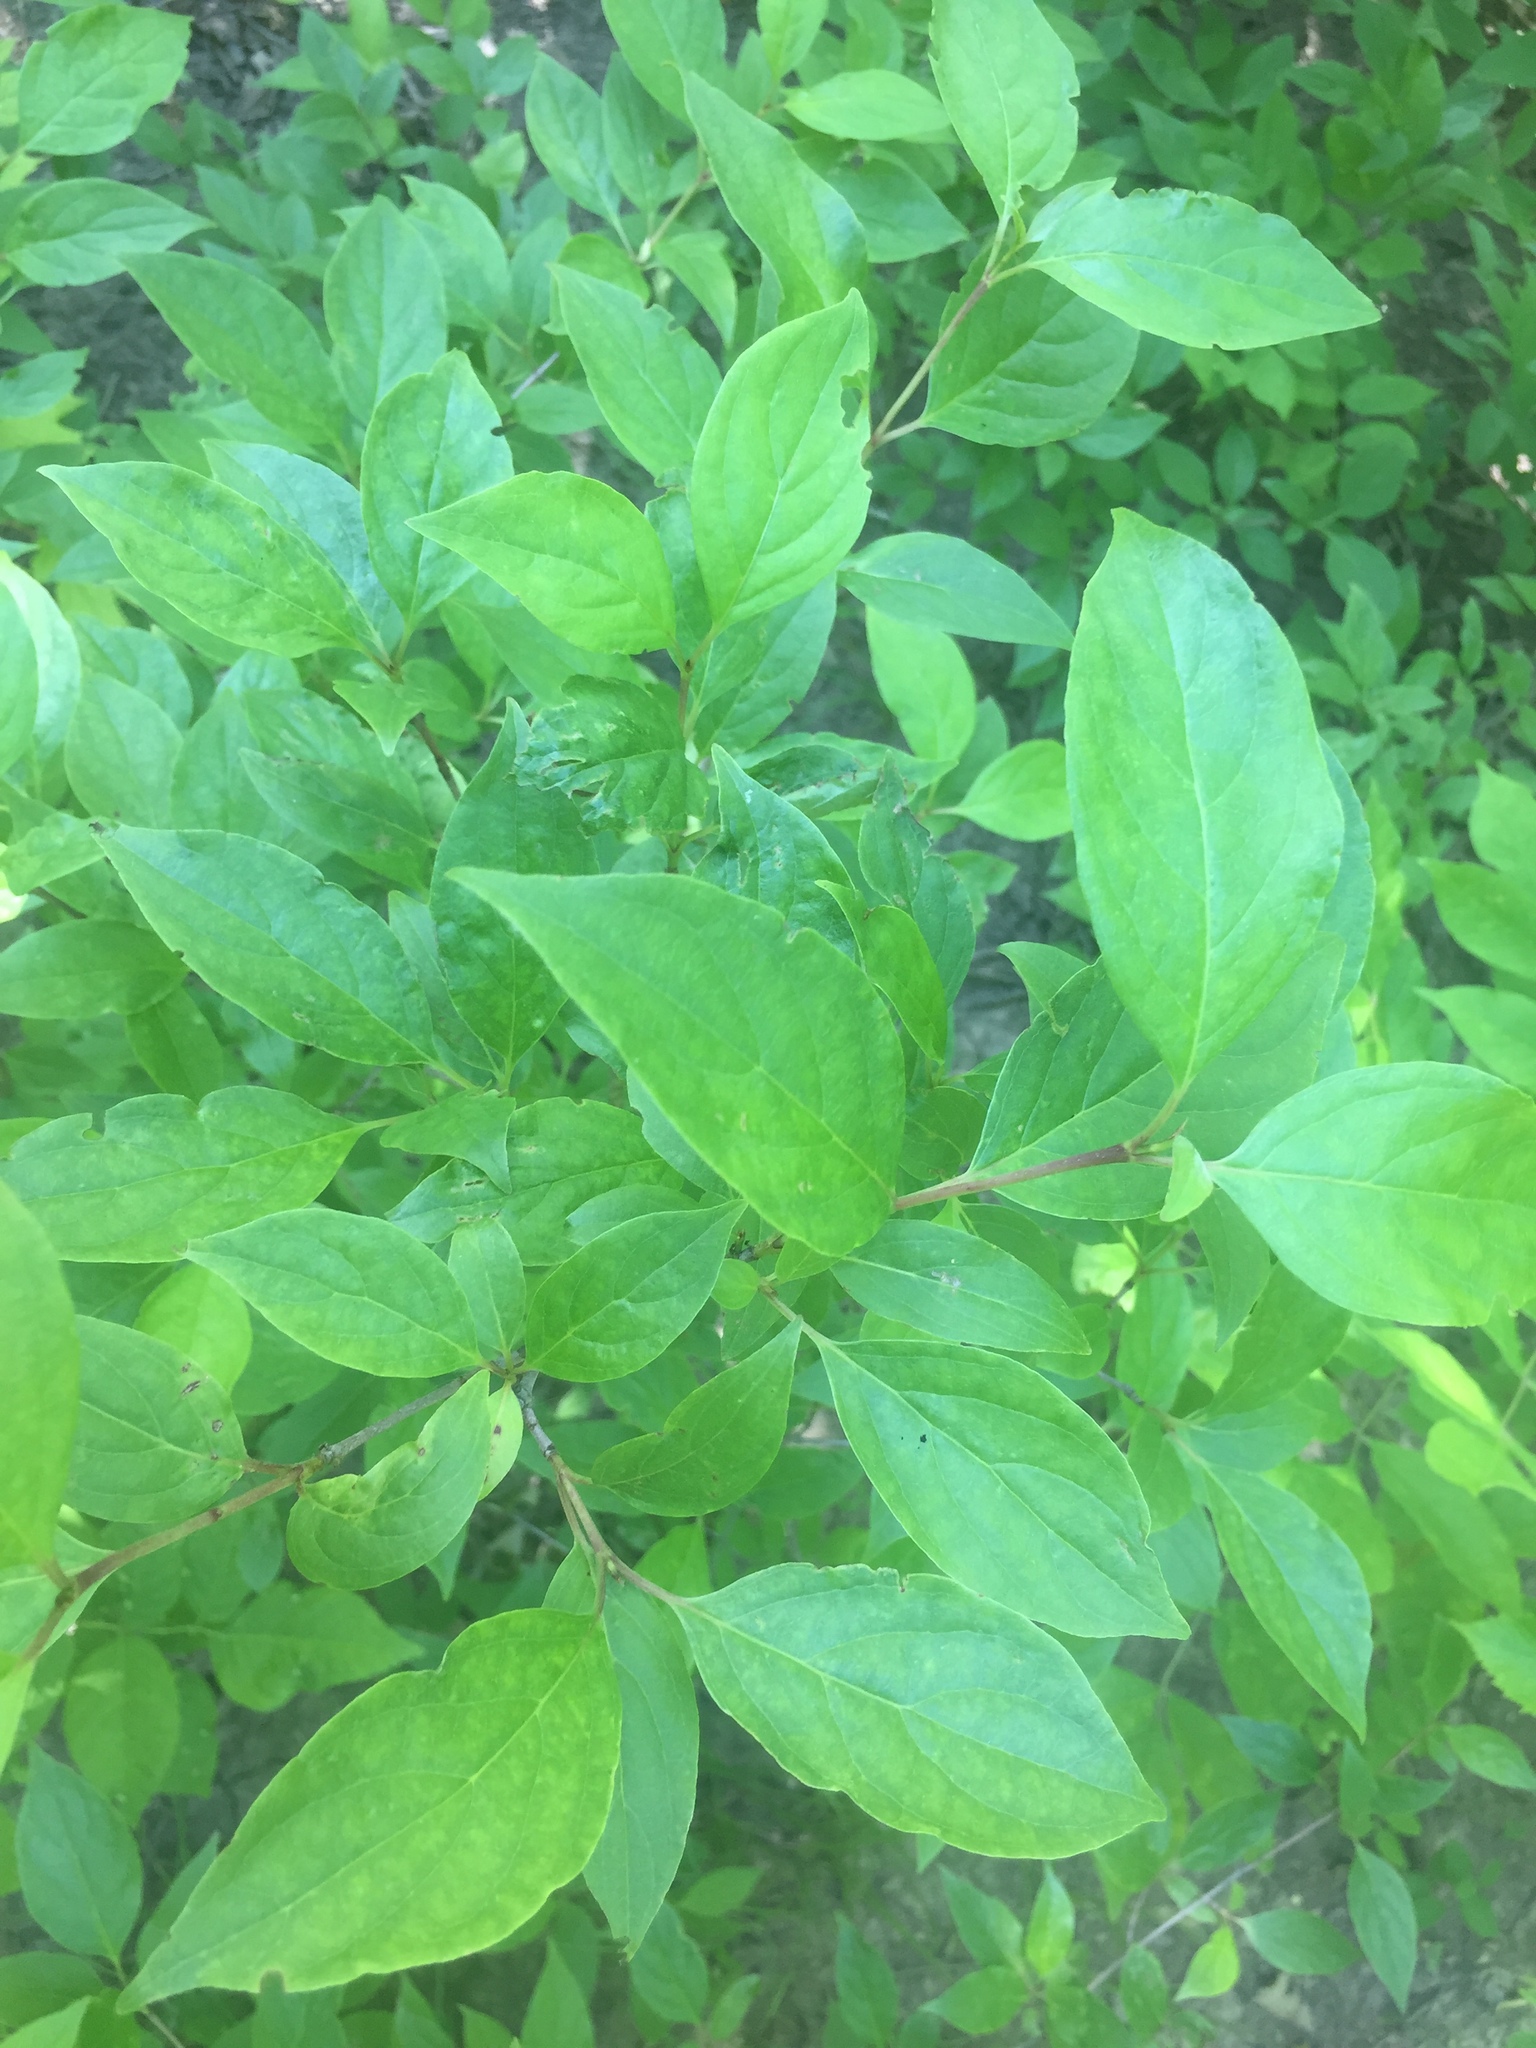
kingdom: Plantae
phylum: Tracheophyta
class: Magnoliopsida
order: Cornales
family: Cornaceae
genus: Cornus
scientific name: Cornus racemosa
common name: Panicled dogwood
